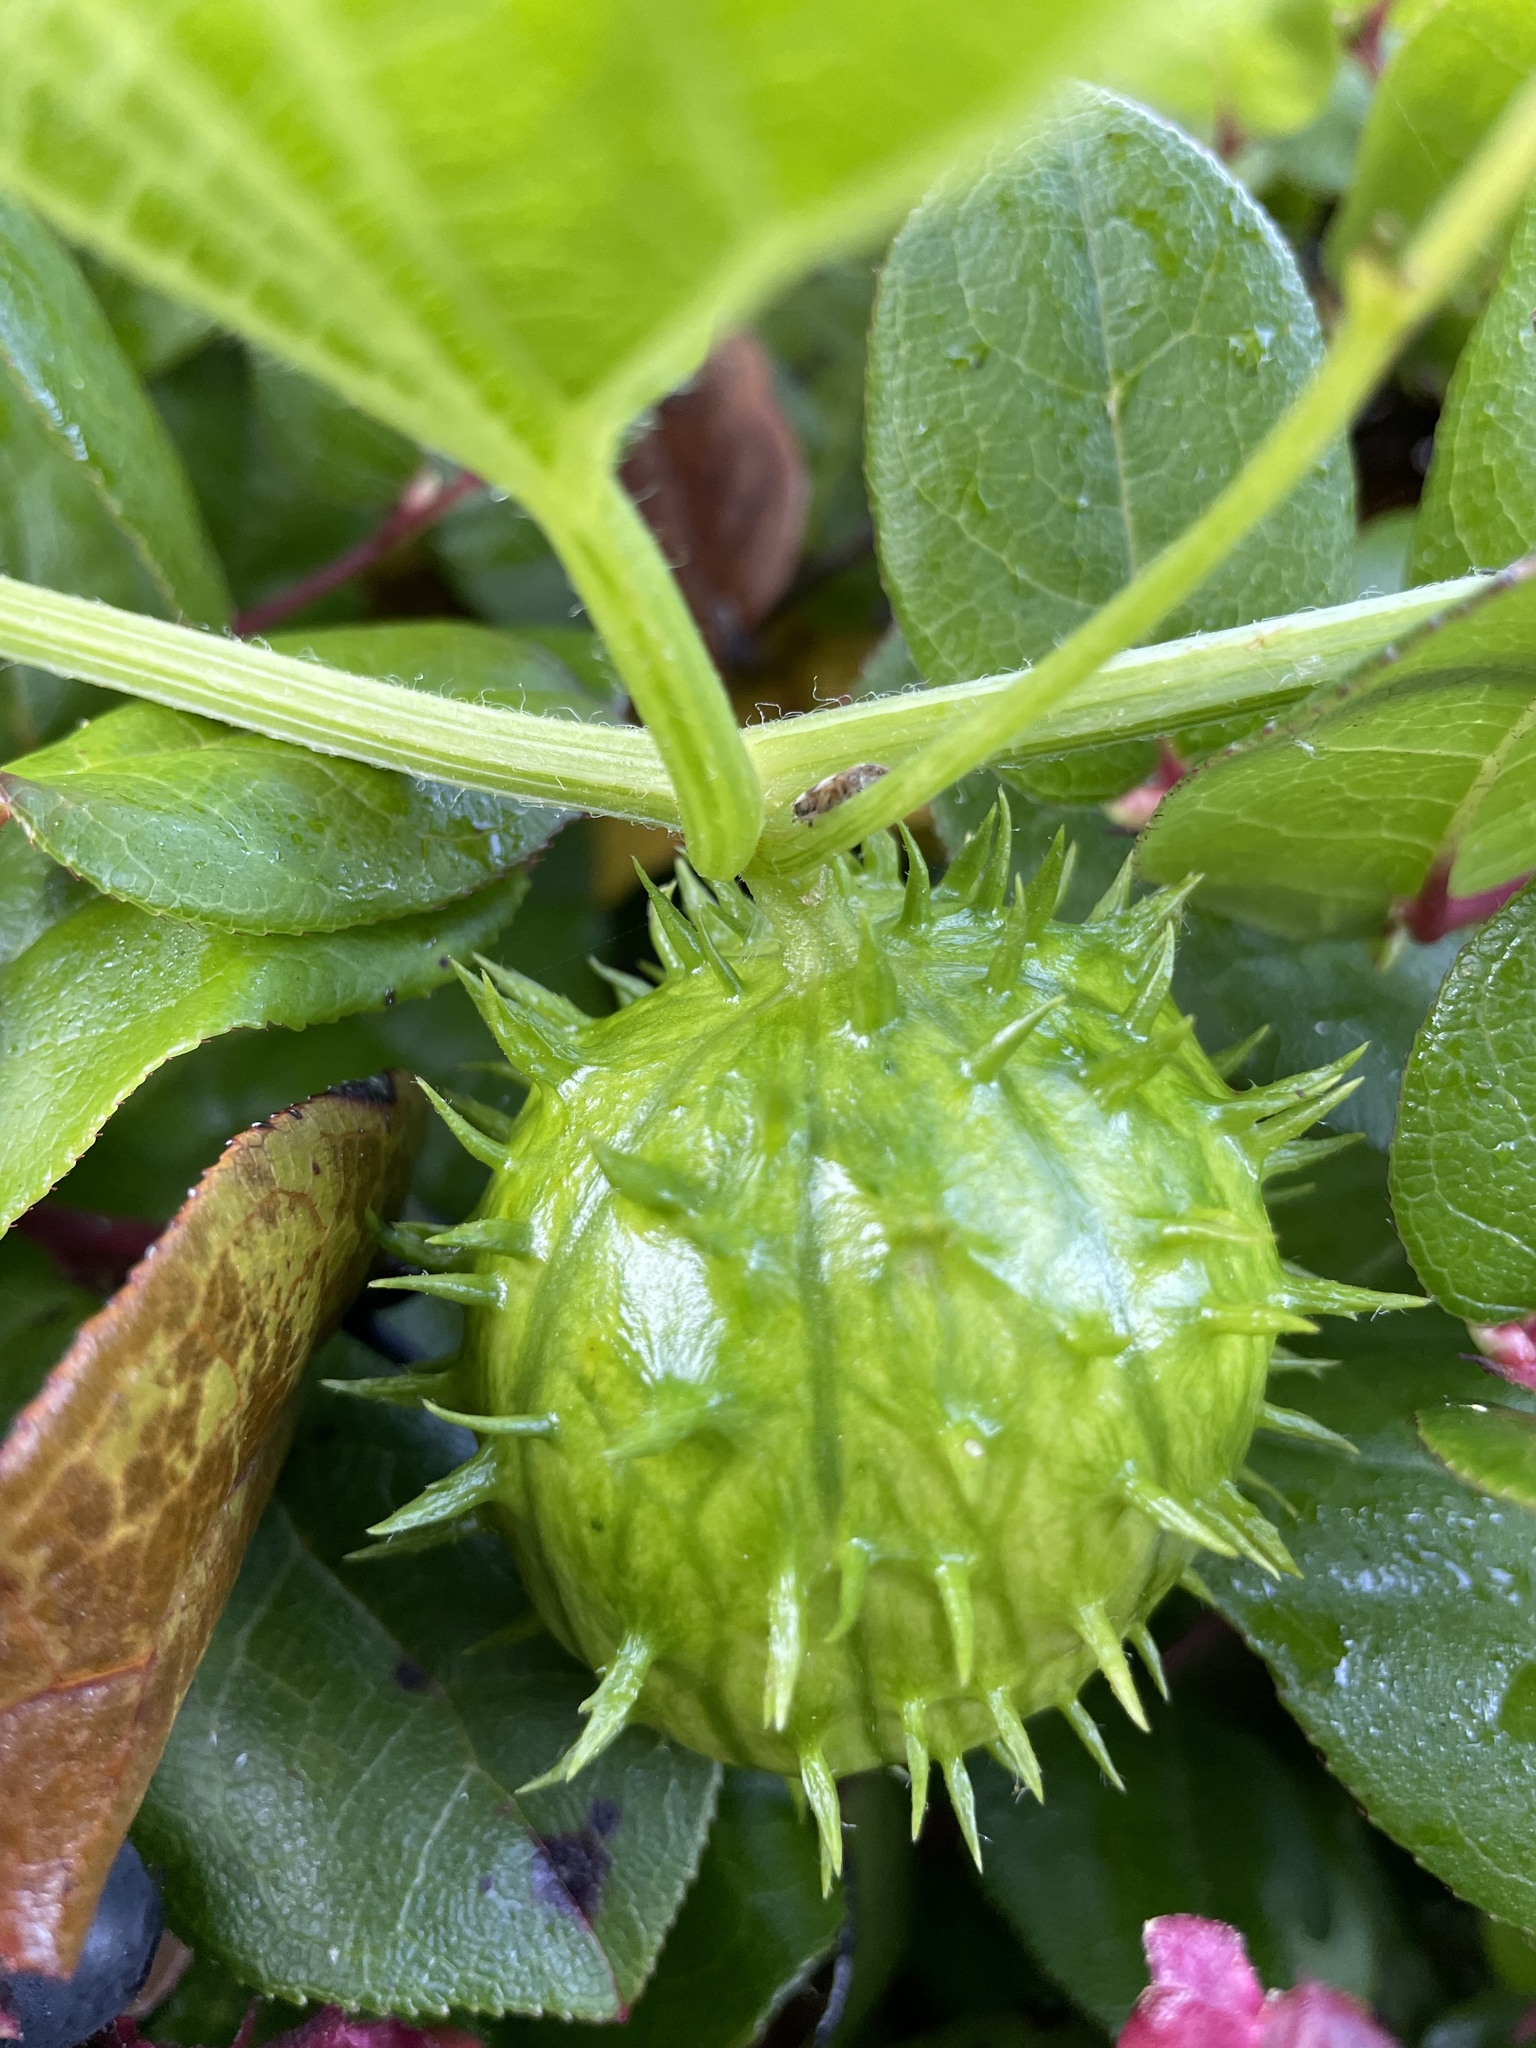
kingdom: Plantae
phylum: Tracheophyta
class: Magnoliopsida
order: Cucurbitales
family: Cucurbitaceae
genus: Marah
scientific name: Marah oregana
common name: Coastal manroot
